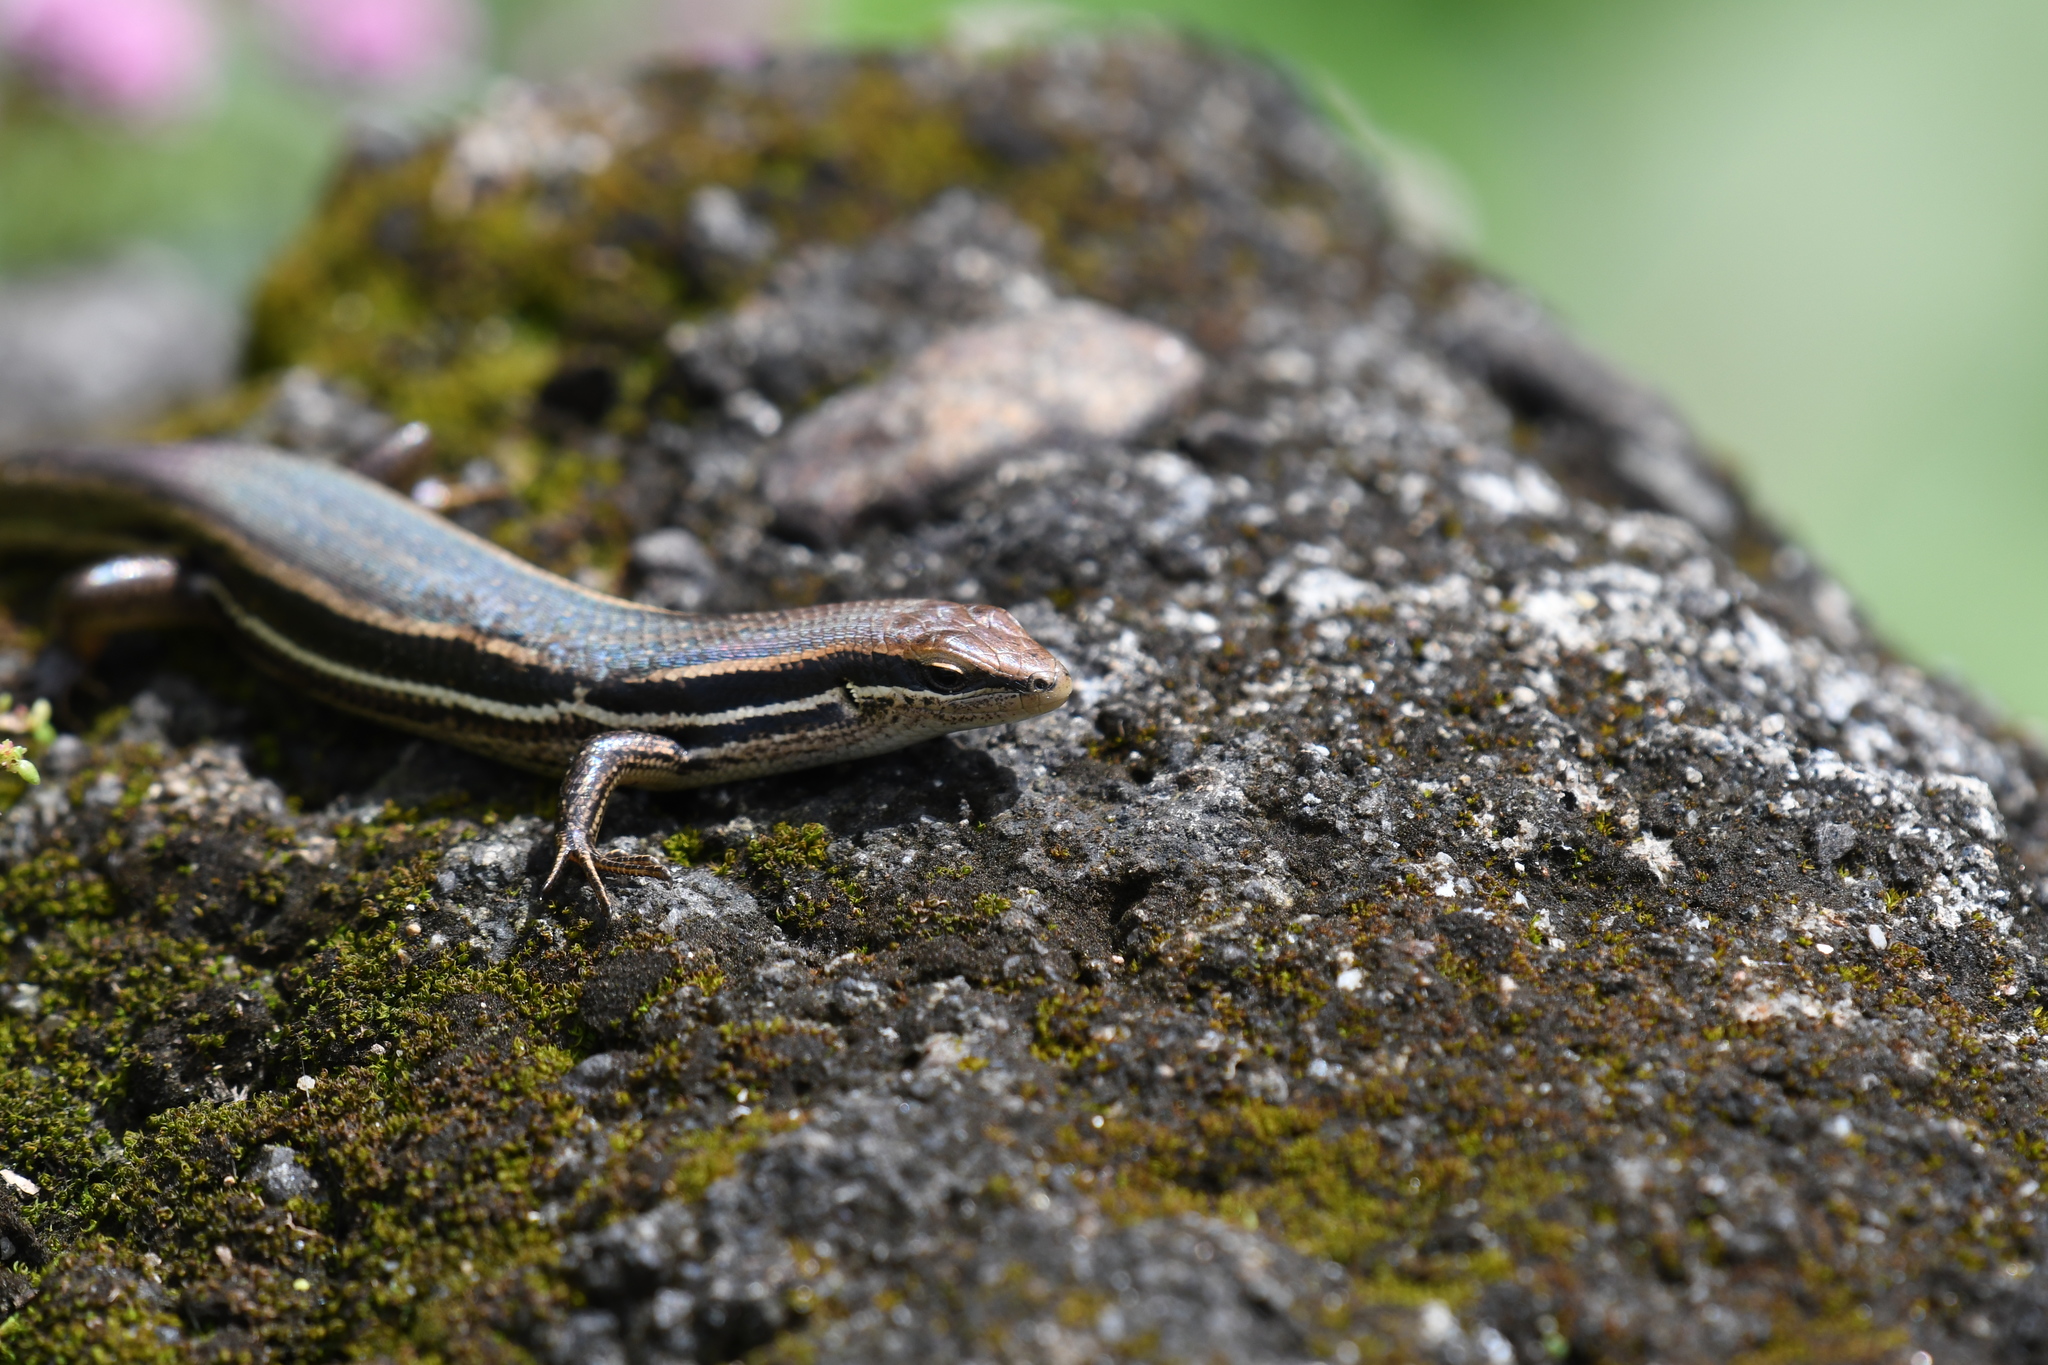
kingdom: Animalia
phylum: Chordata
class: Squamata
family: Scincidae
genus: Trachylepis
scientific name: Trachylepis gravenhorstii
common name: Gravenhorst's mabuya
